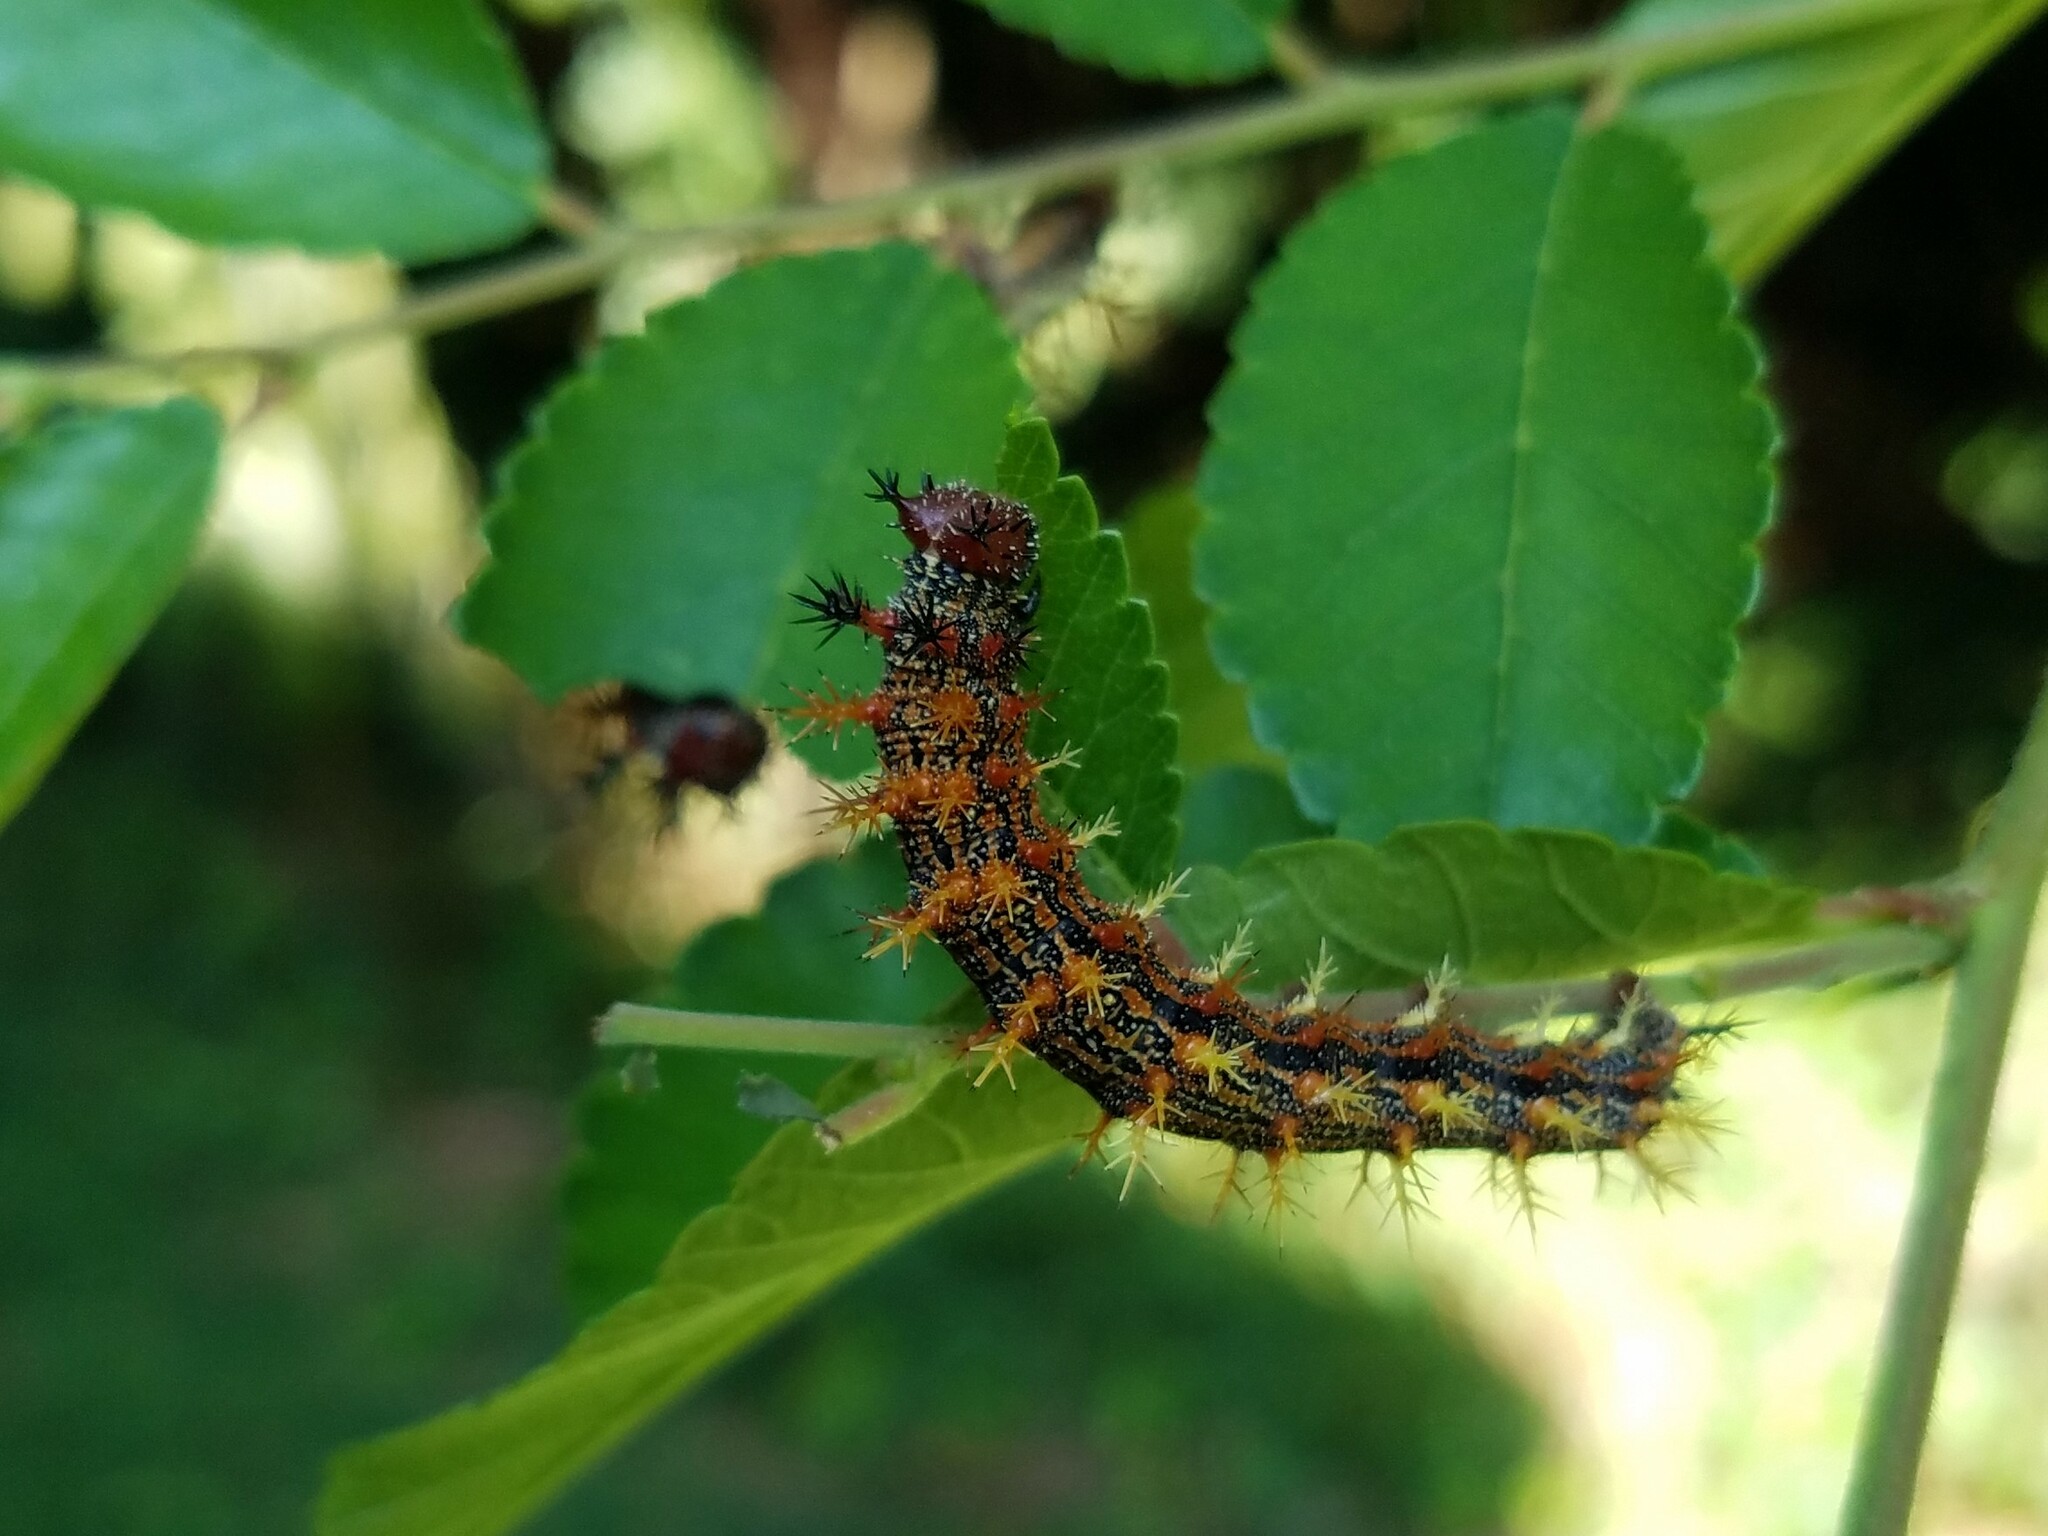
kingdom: Animalia
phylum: Arthropoda
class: Insecta
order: Lepidoptera
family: Nymphalidae
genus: Polygonia
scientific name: Polygonia interrogationis
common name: Question mark
